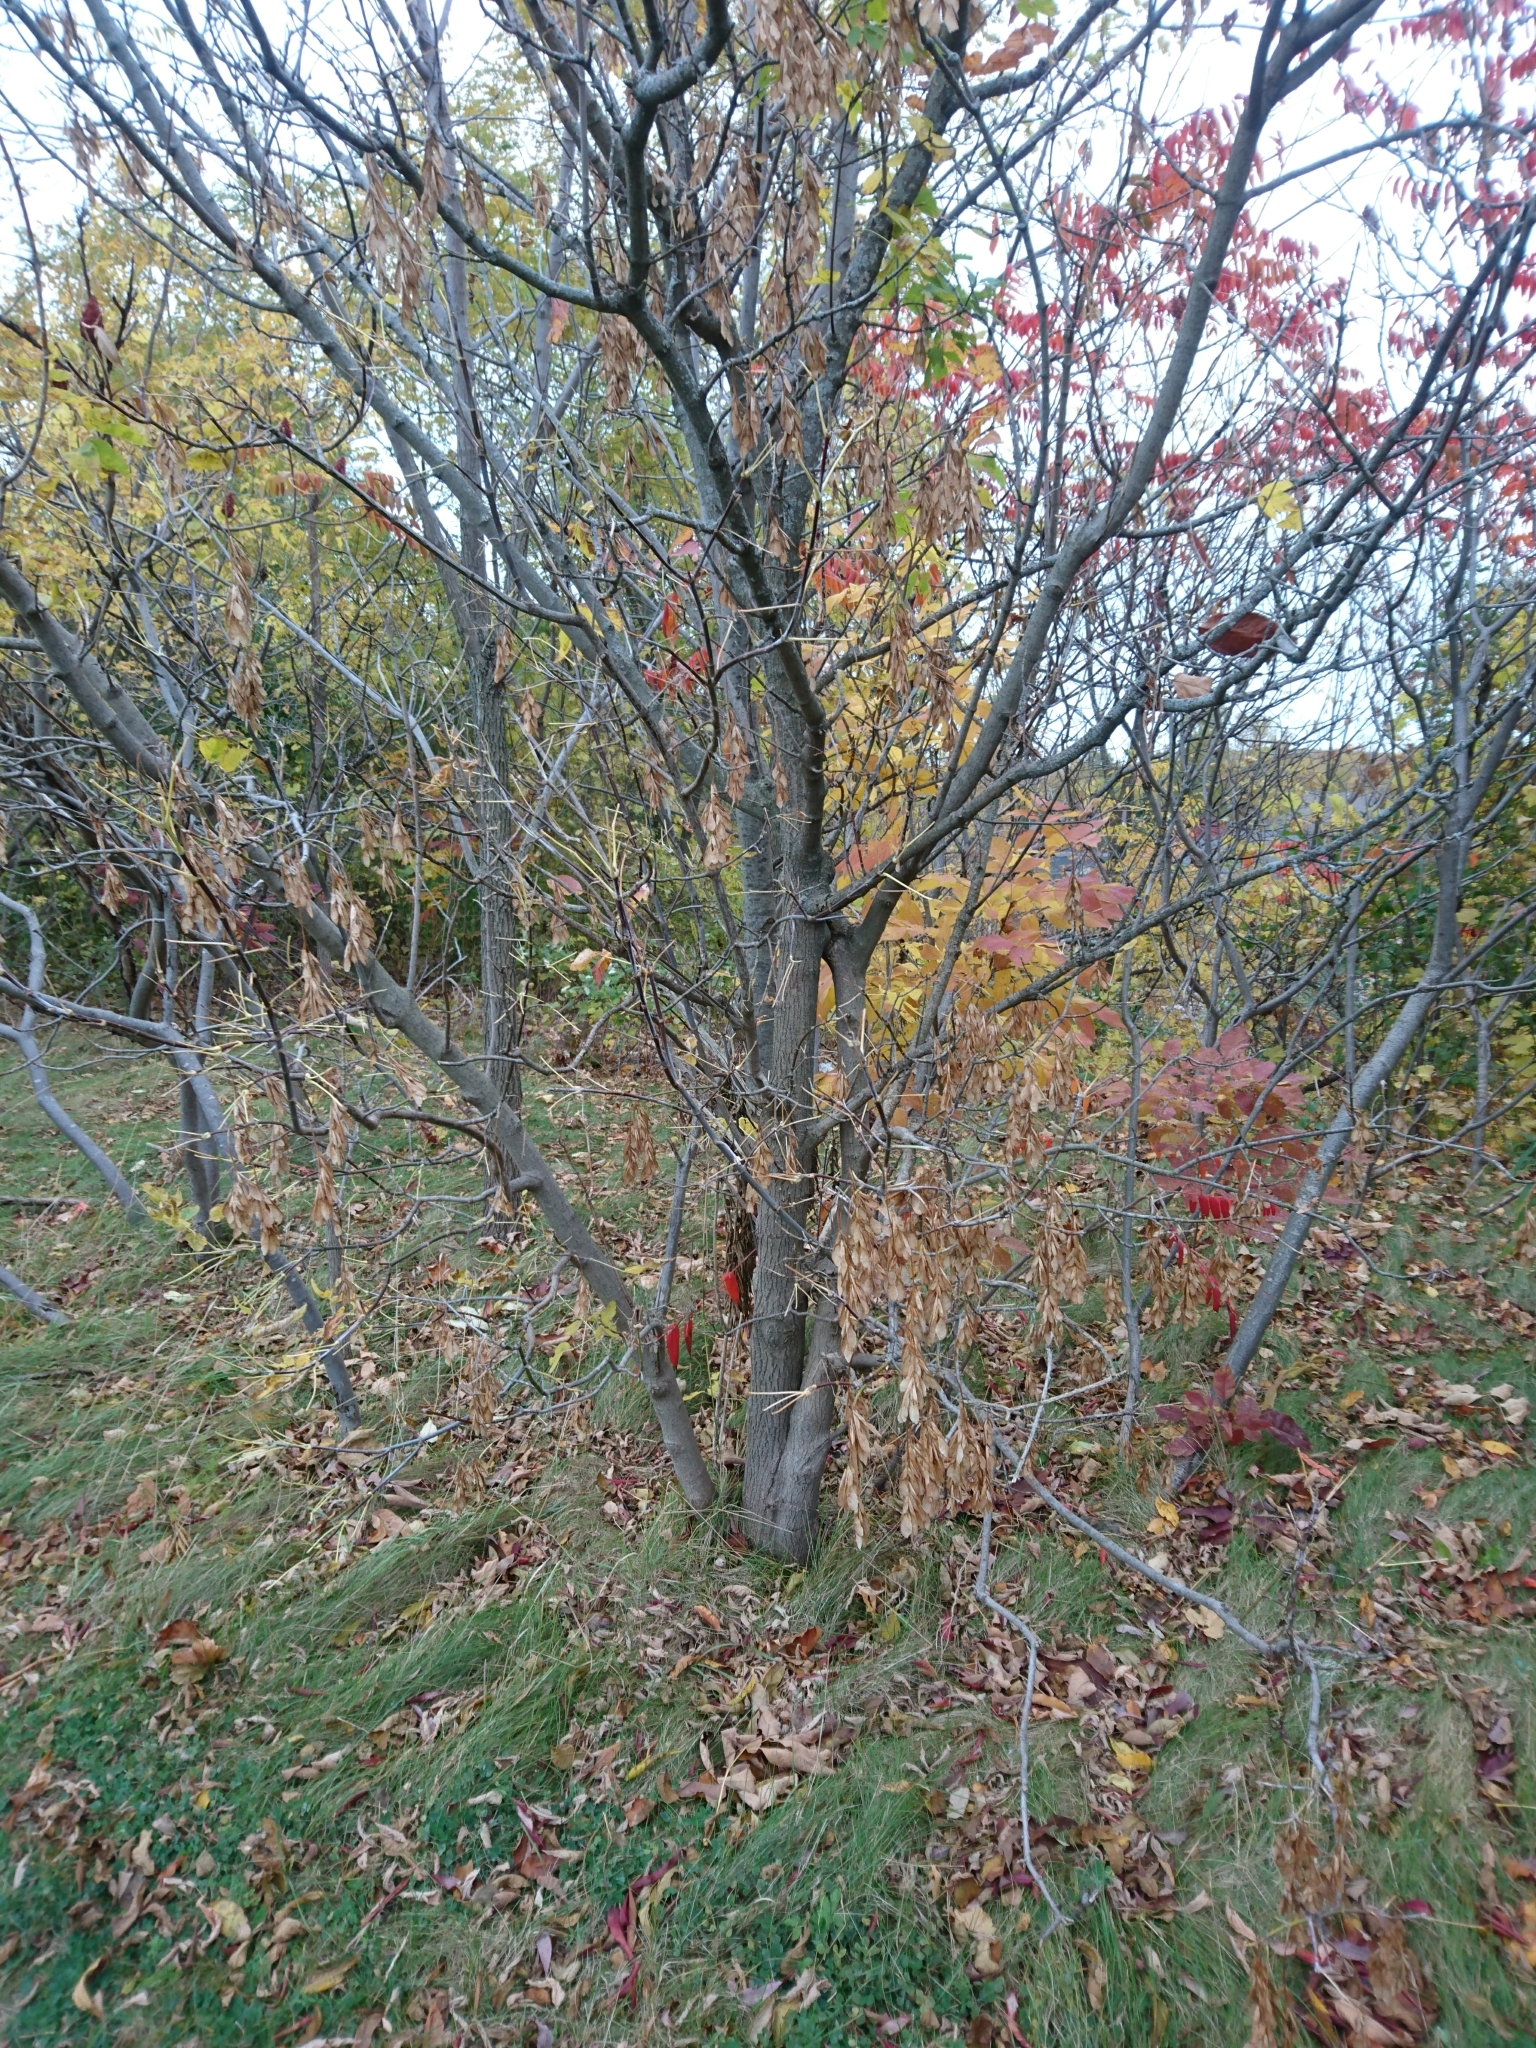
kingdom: Plantae
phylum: Tracheophyta
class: Magnoliopsida
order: Sapindales
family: Sapindaceae
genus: Acer
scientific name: Acer negundo
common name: Ashleaf maple
